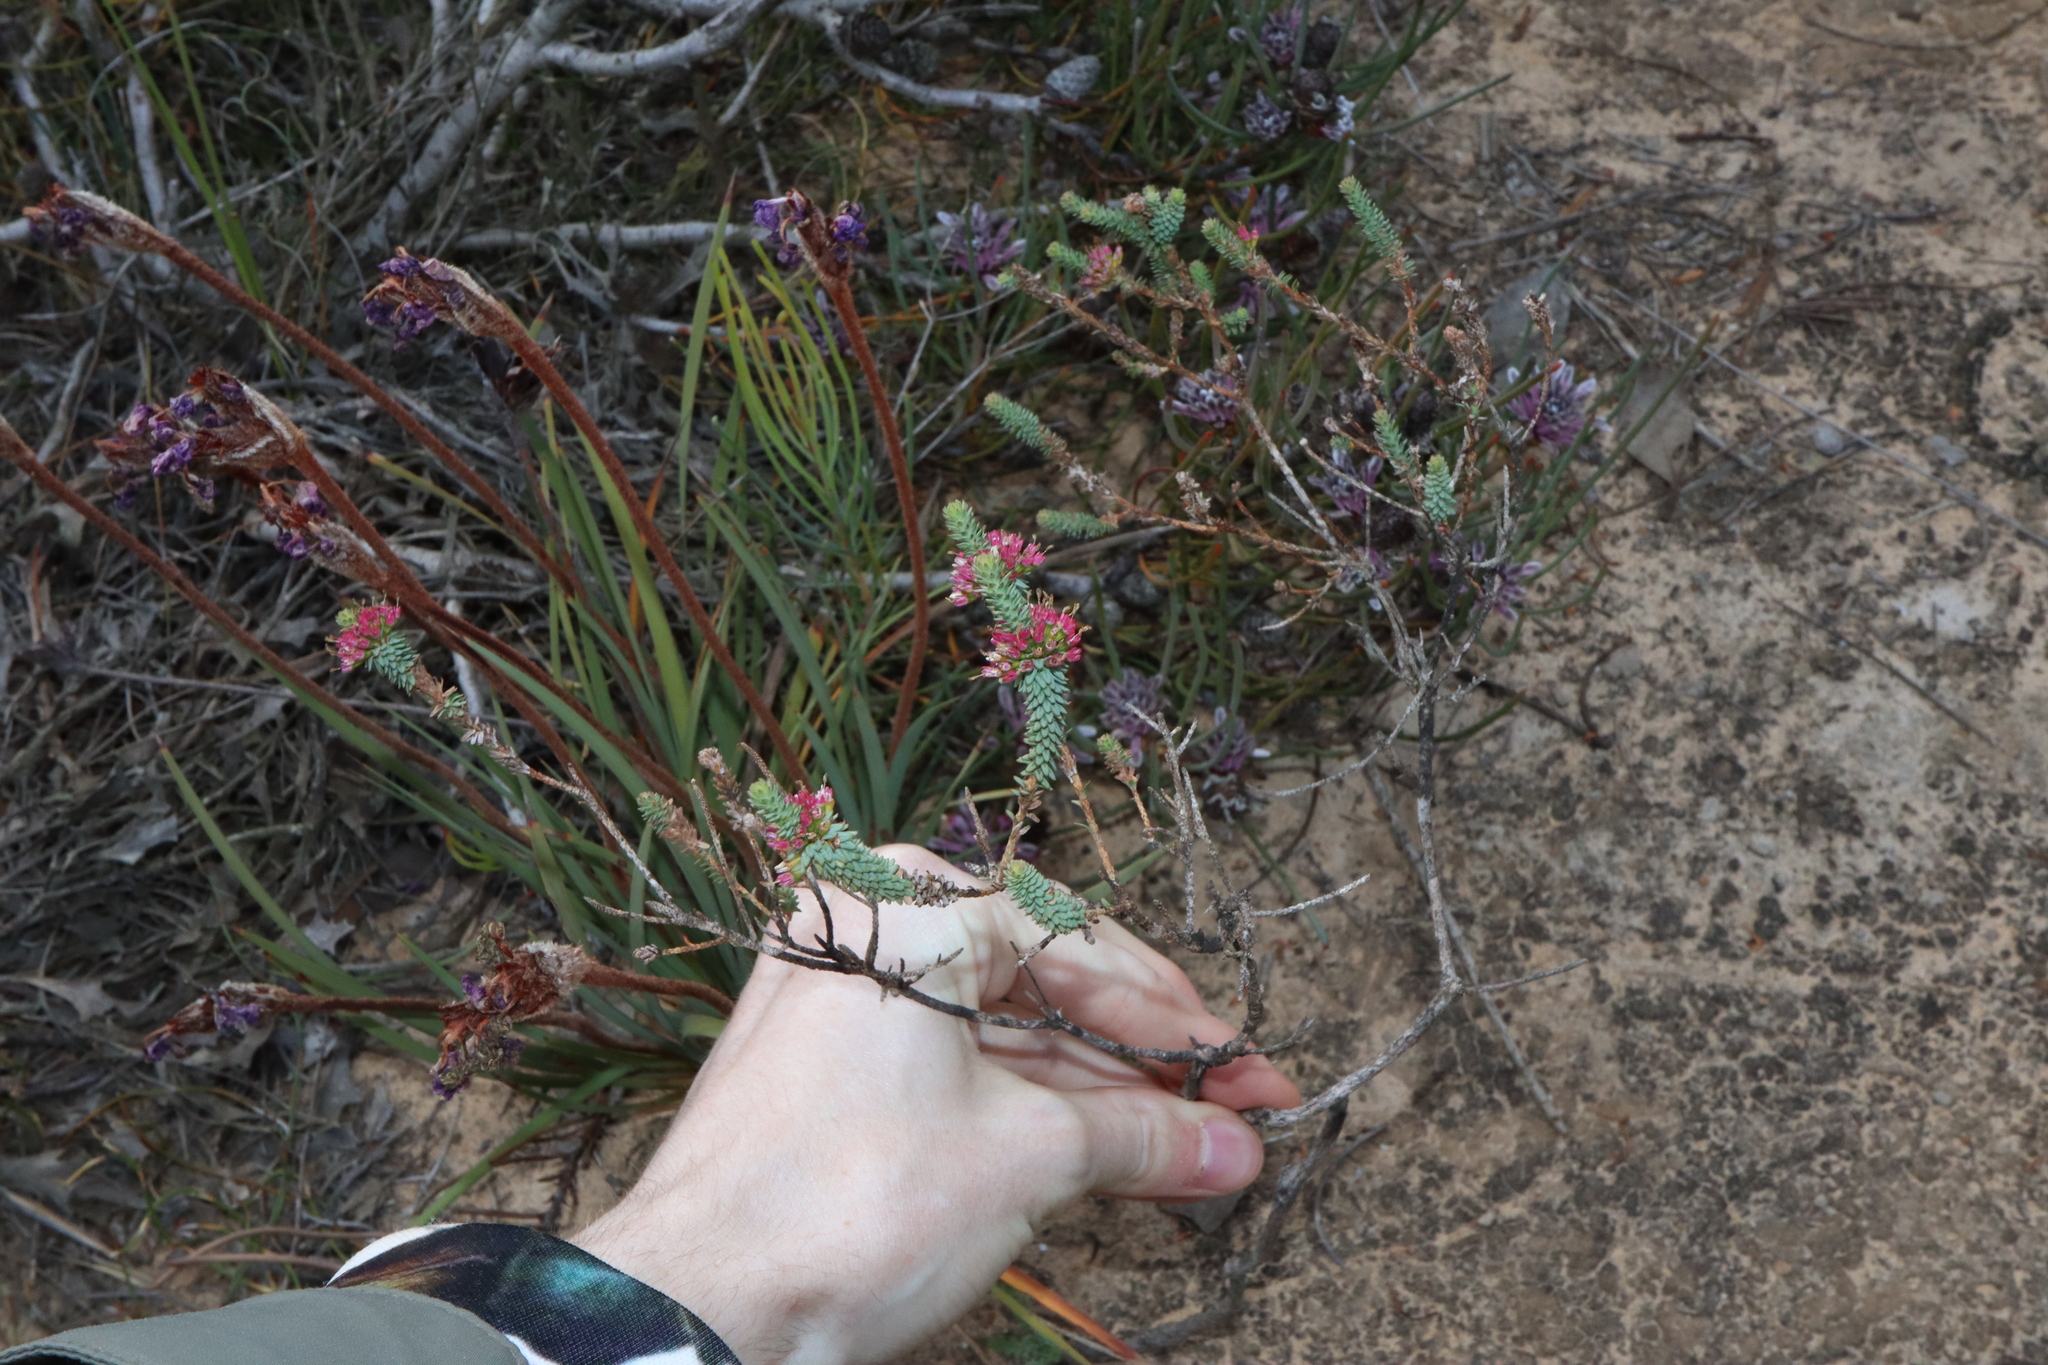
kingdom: Plantae
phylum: Tracheophyta
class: Magnoliopsida
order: Myrtales
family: Myrtaceae
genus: Darwinia
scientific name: Darwinia vestita
